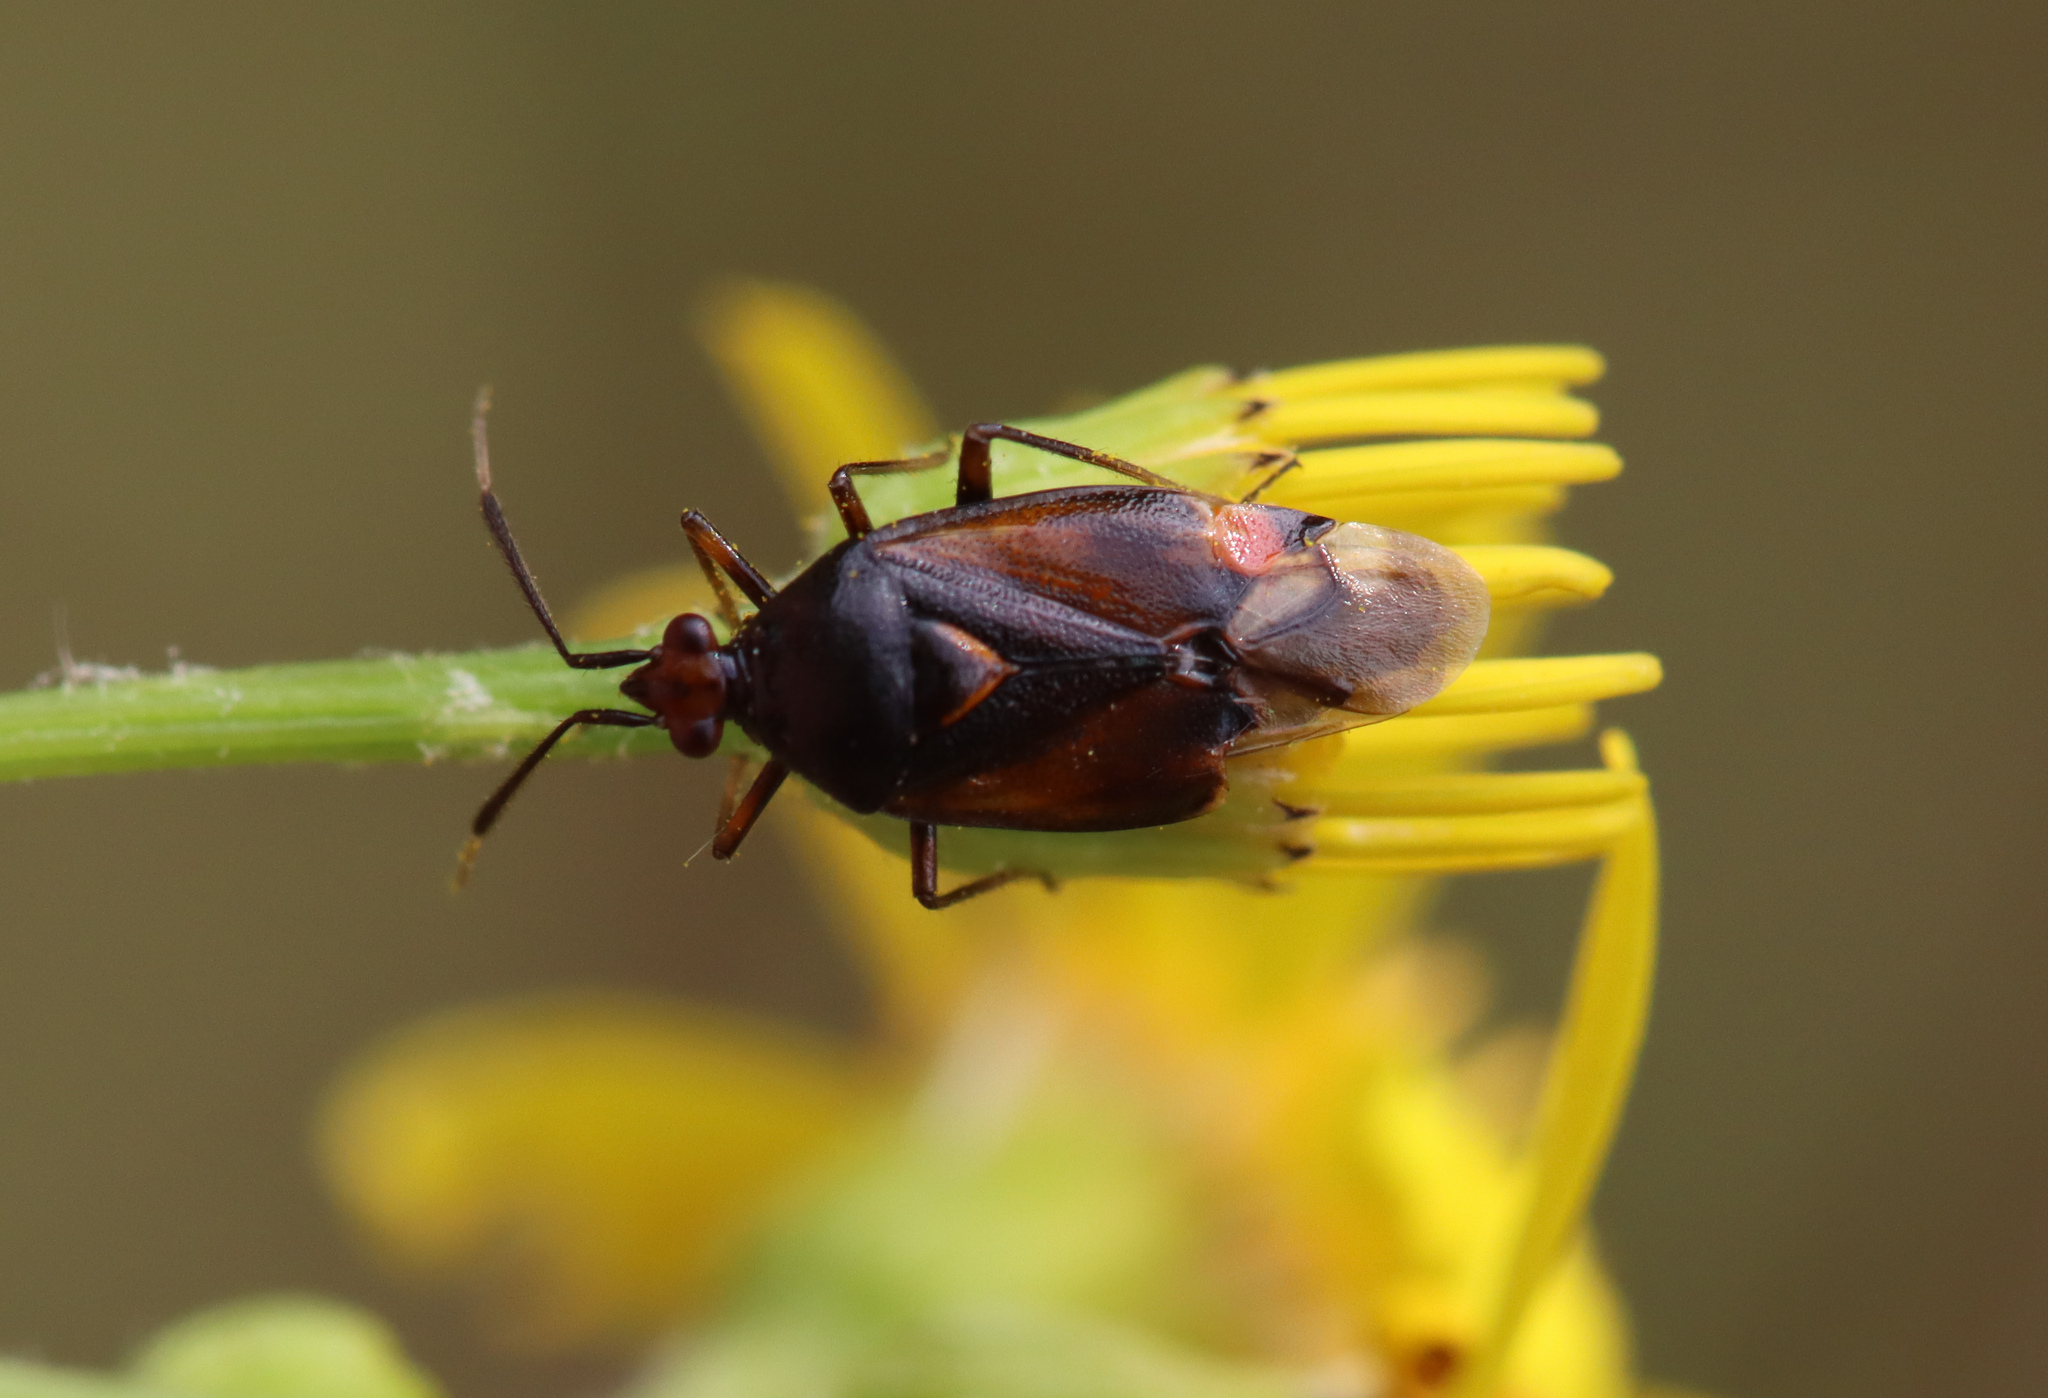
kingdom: Animalia
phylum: Arthropoda
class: Insecta
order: Hemiptera
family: Miridae
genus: Deraeocoris
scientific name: Deraeocoris ruber
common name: Plant bug
